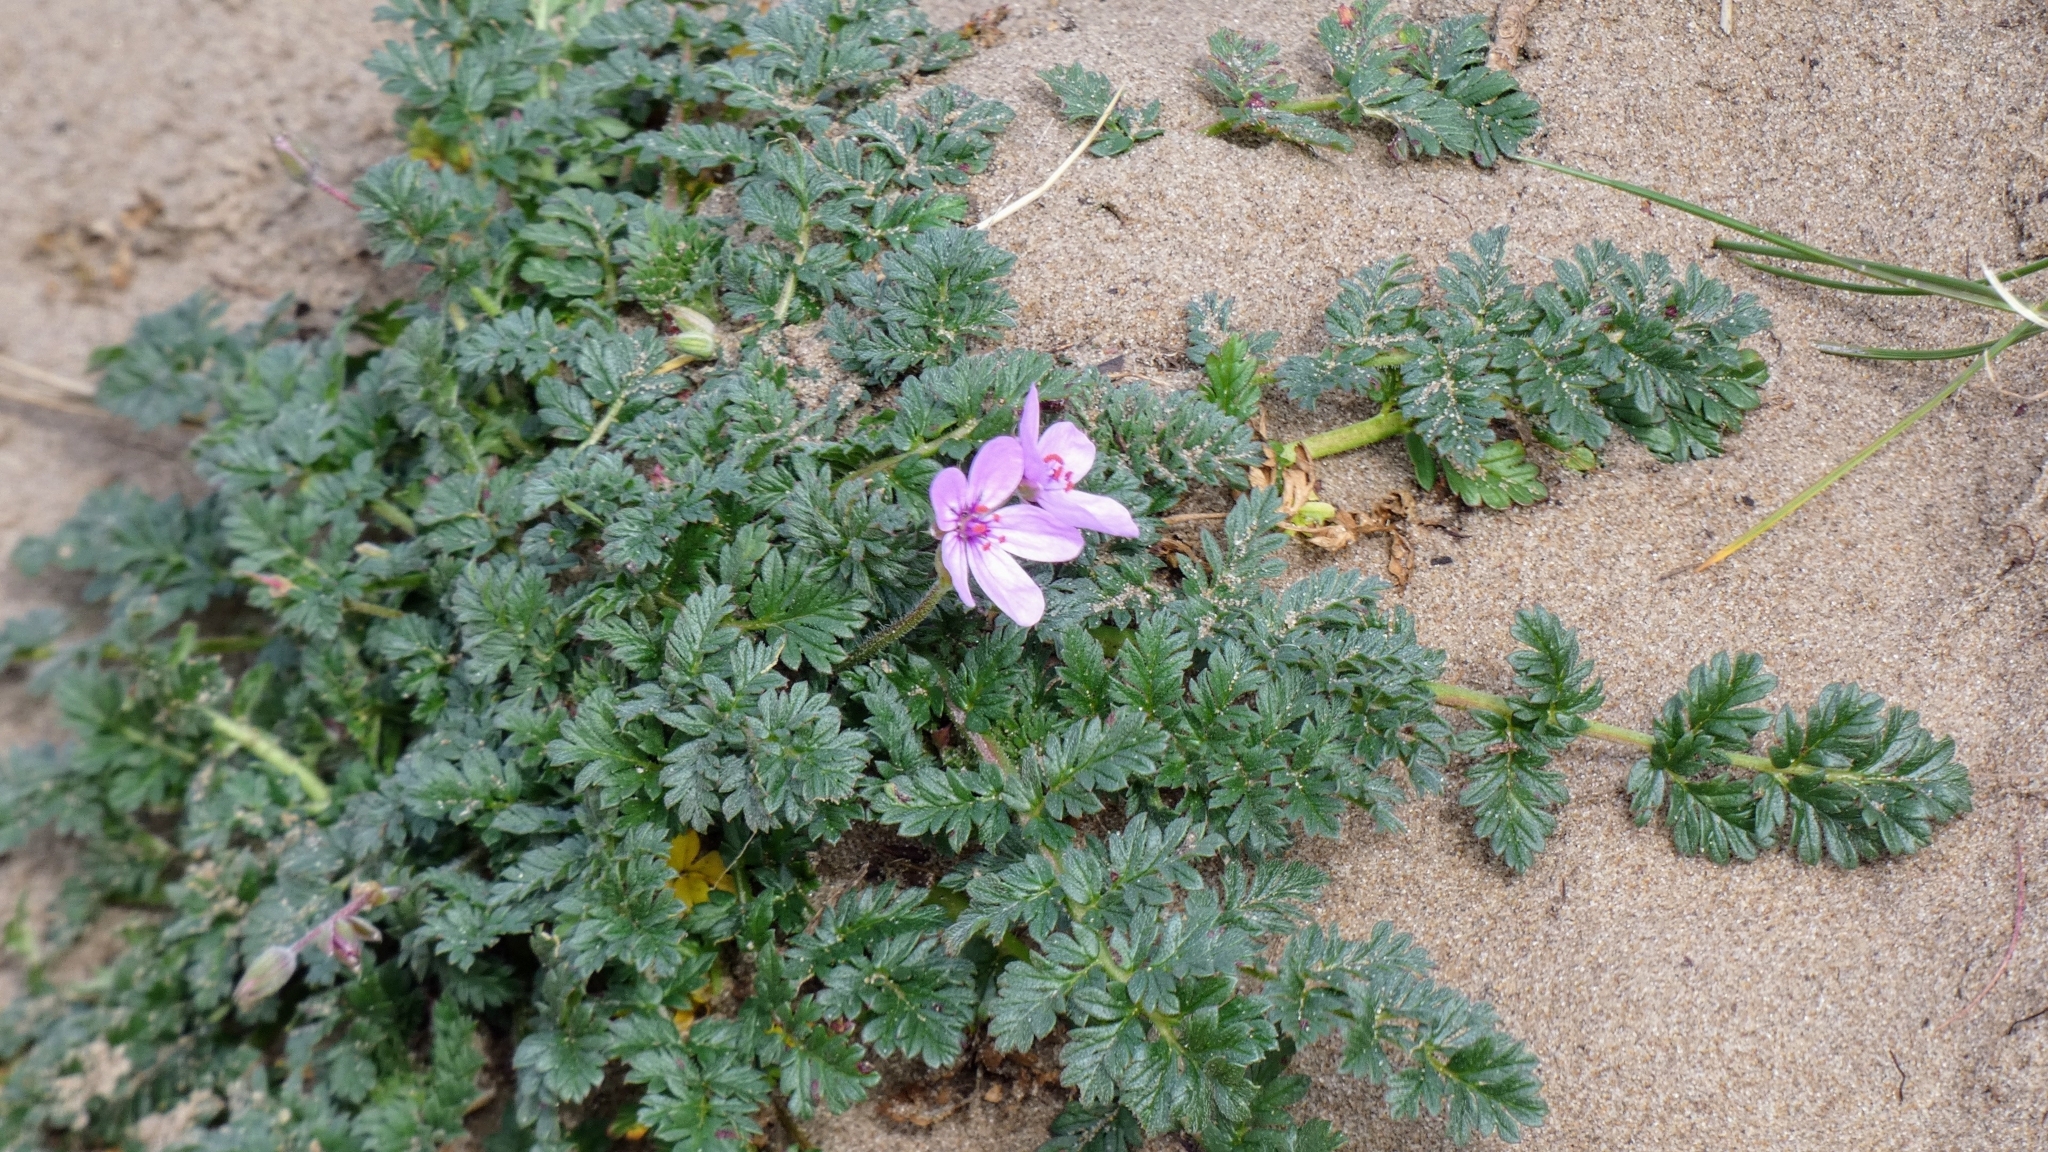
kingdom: Plantae
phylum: Tracheophyta
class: Magnoliopsida
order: Geraniales
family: Geraniaceae
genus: Erodium
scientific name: Erodium cicutarium
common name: Common stork's-bill
